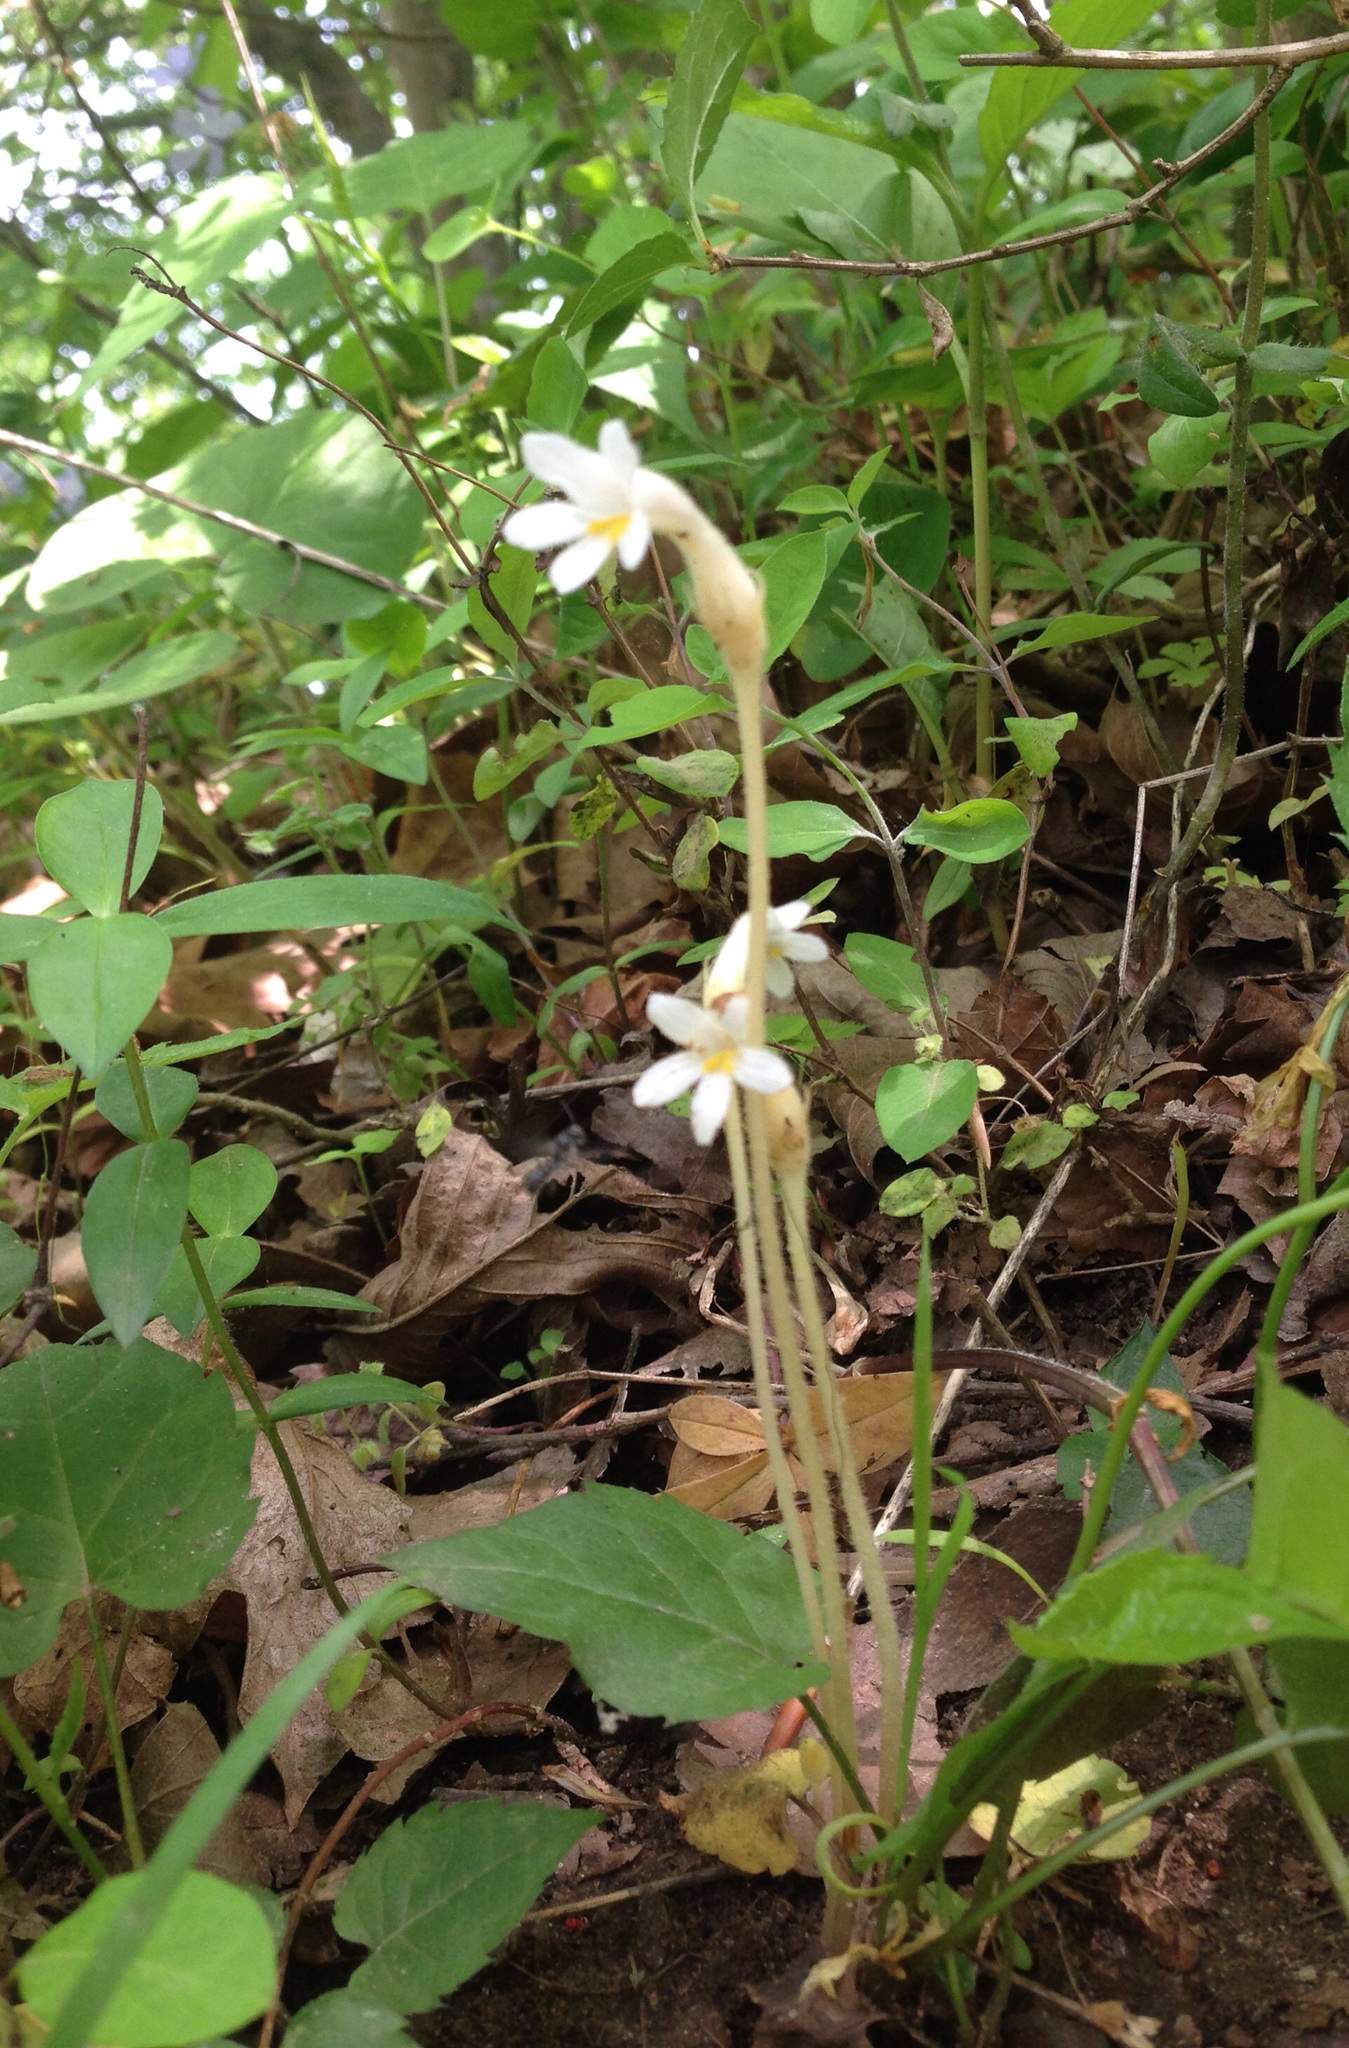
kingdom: Plantae
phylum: Tracheophyta
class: Magnoliopsida
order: Lamiales
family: Orobanchaceae
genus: Aphyllon
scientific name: Aphyllon uniflorum
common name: One-flowered broomrape
